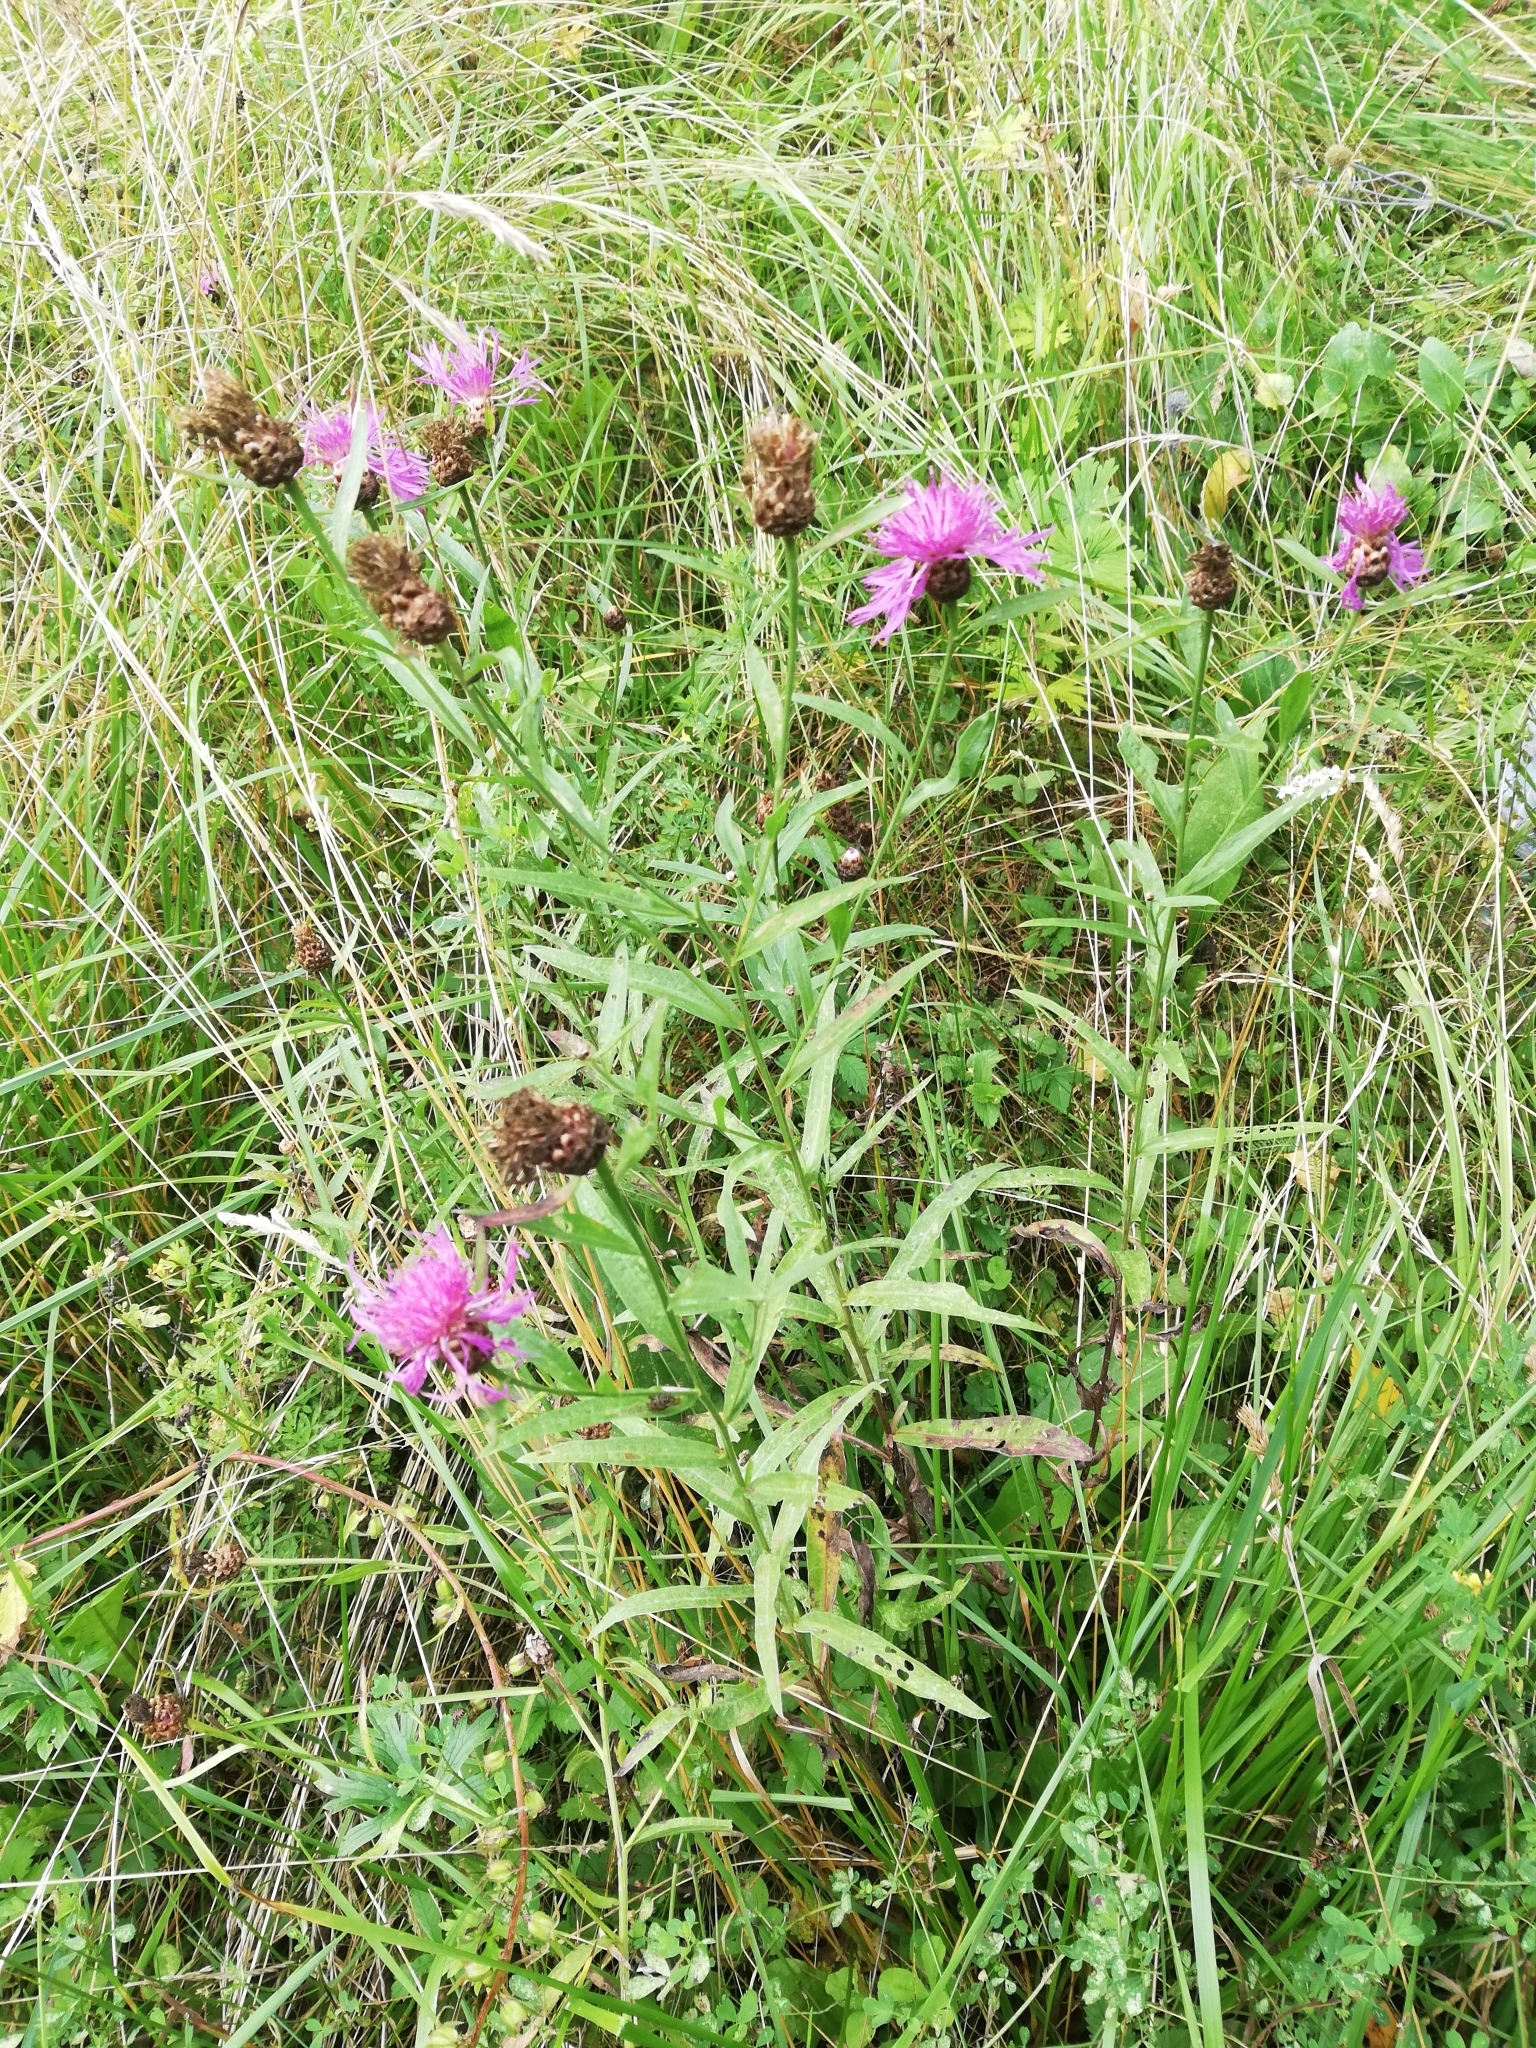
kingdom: Plantae
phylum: Tracheophyta
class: Magnoliopsida
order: Asterales
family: Asteraceae
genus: Centaurea
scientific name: Centaurea jacea
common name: Brown knapweed
